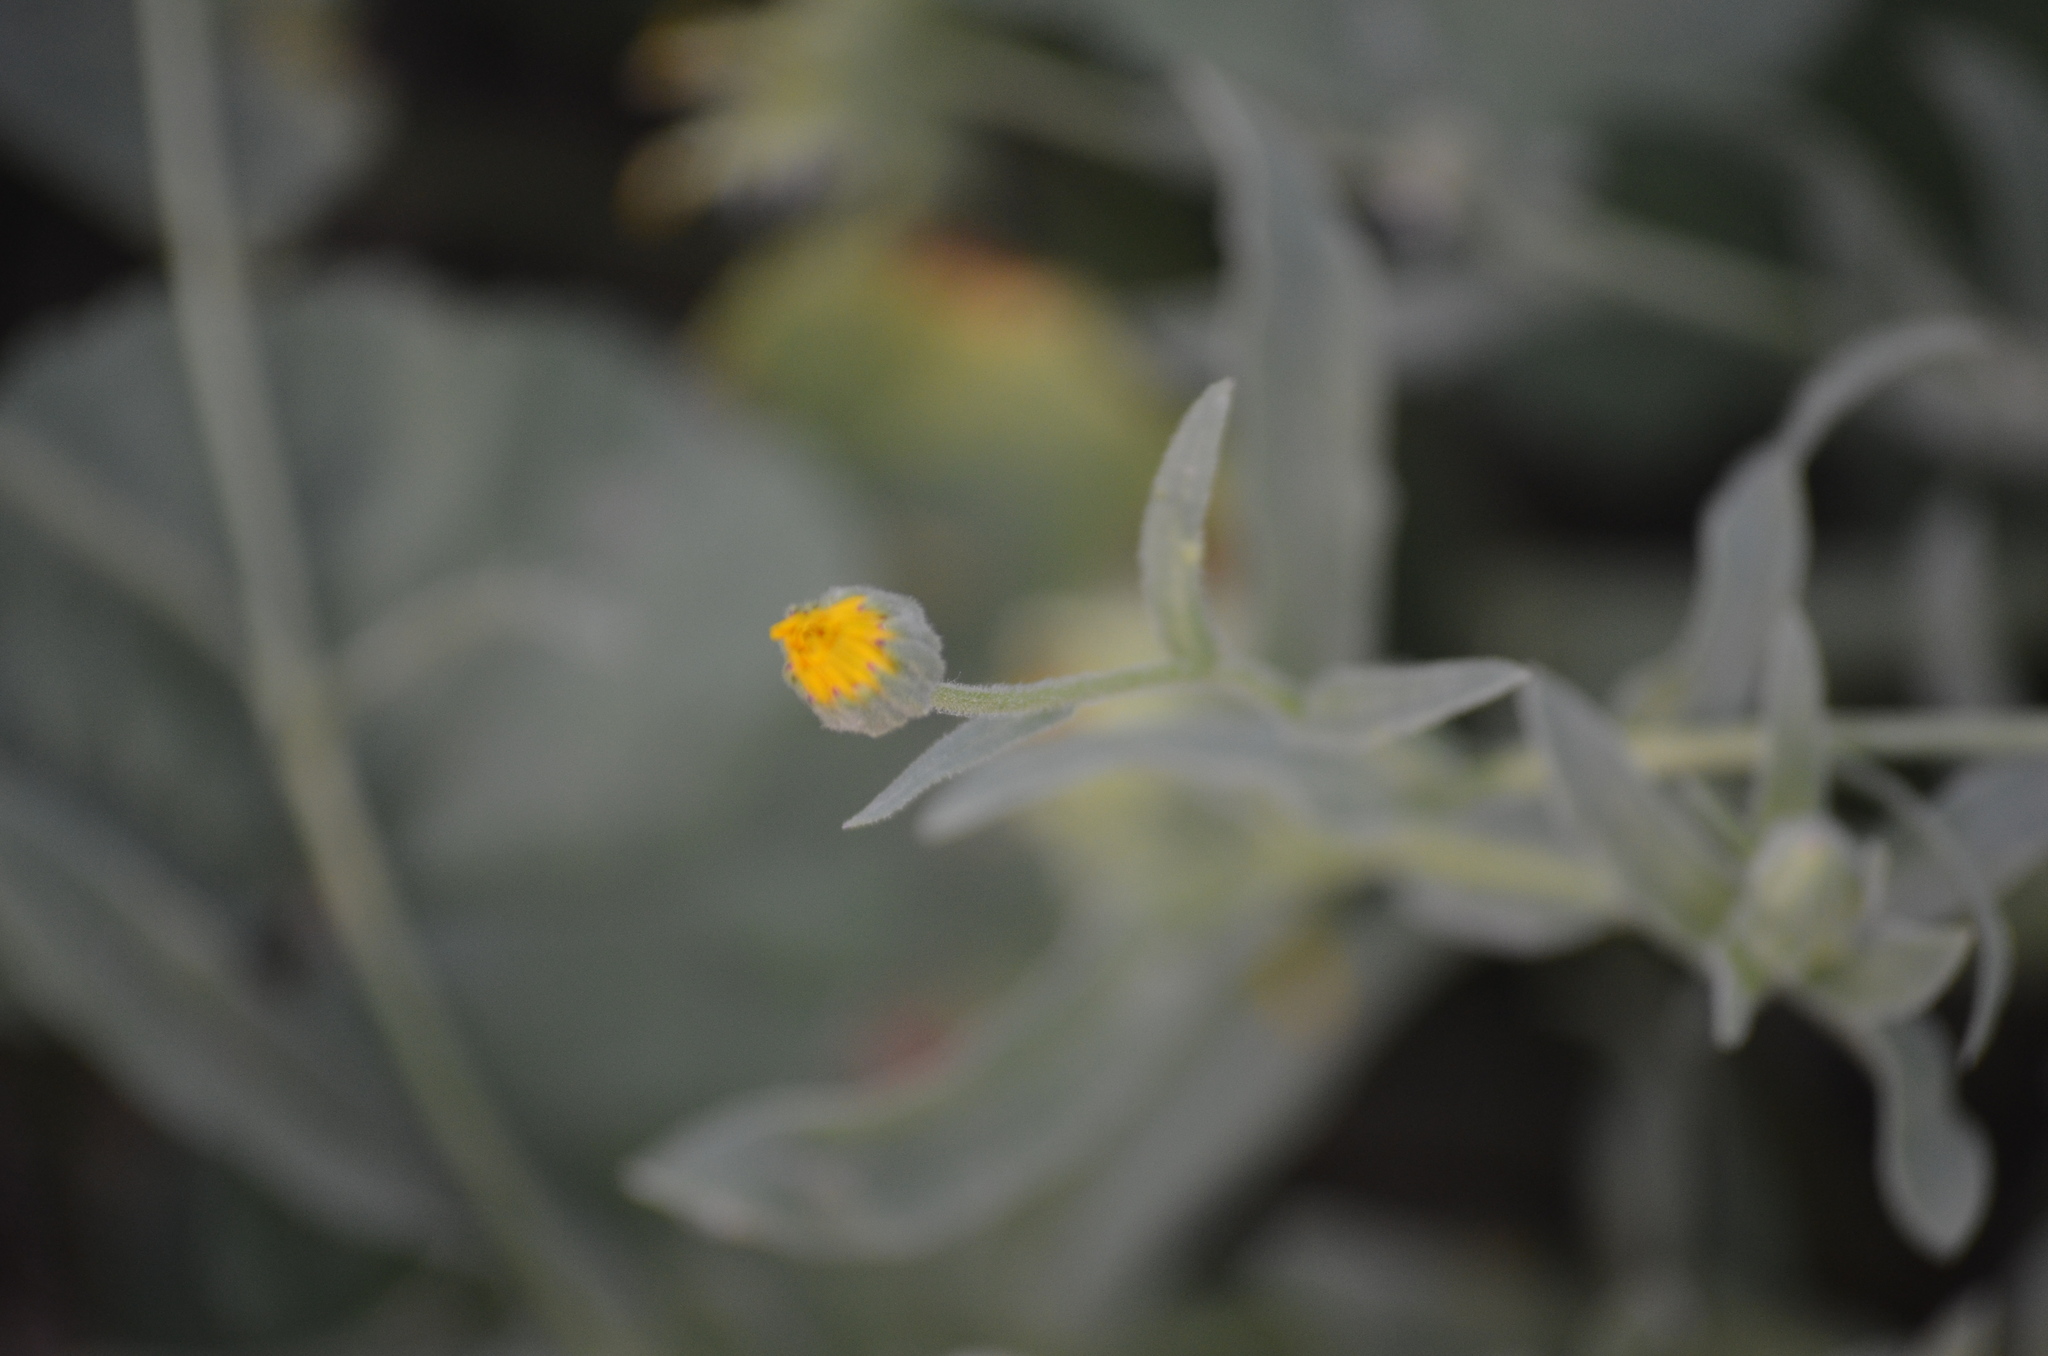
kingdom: Plantae
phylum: Tracheophyta
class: Magnoliopsida
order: Asterales
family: Asteraceae
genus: Calendula
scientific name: Calendula arvensis
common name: Field marigold
